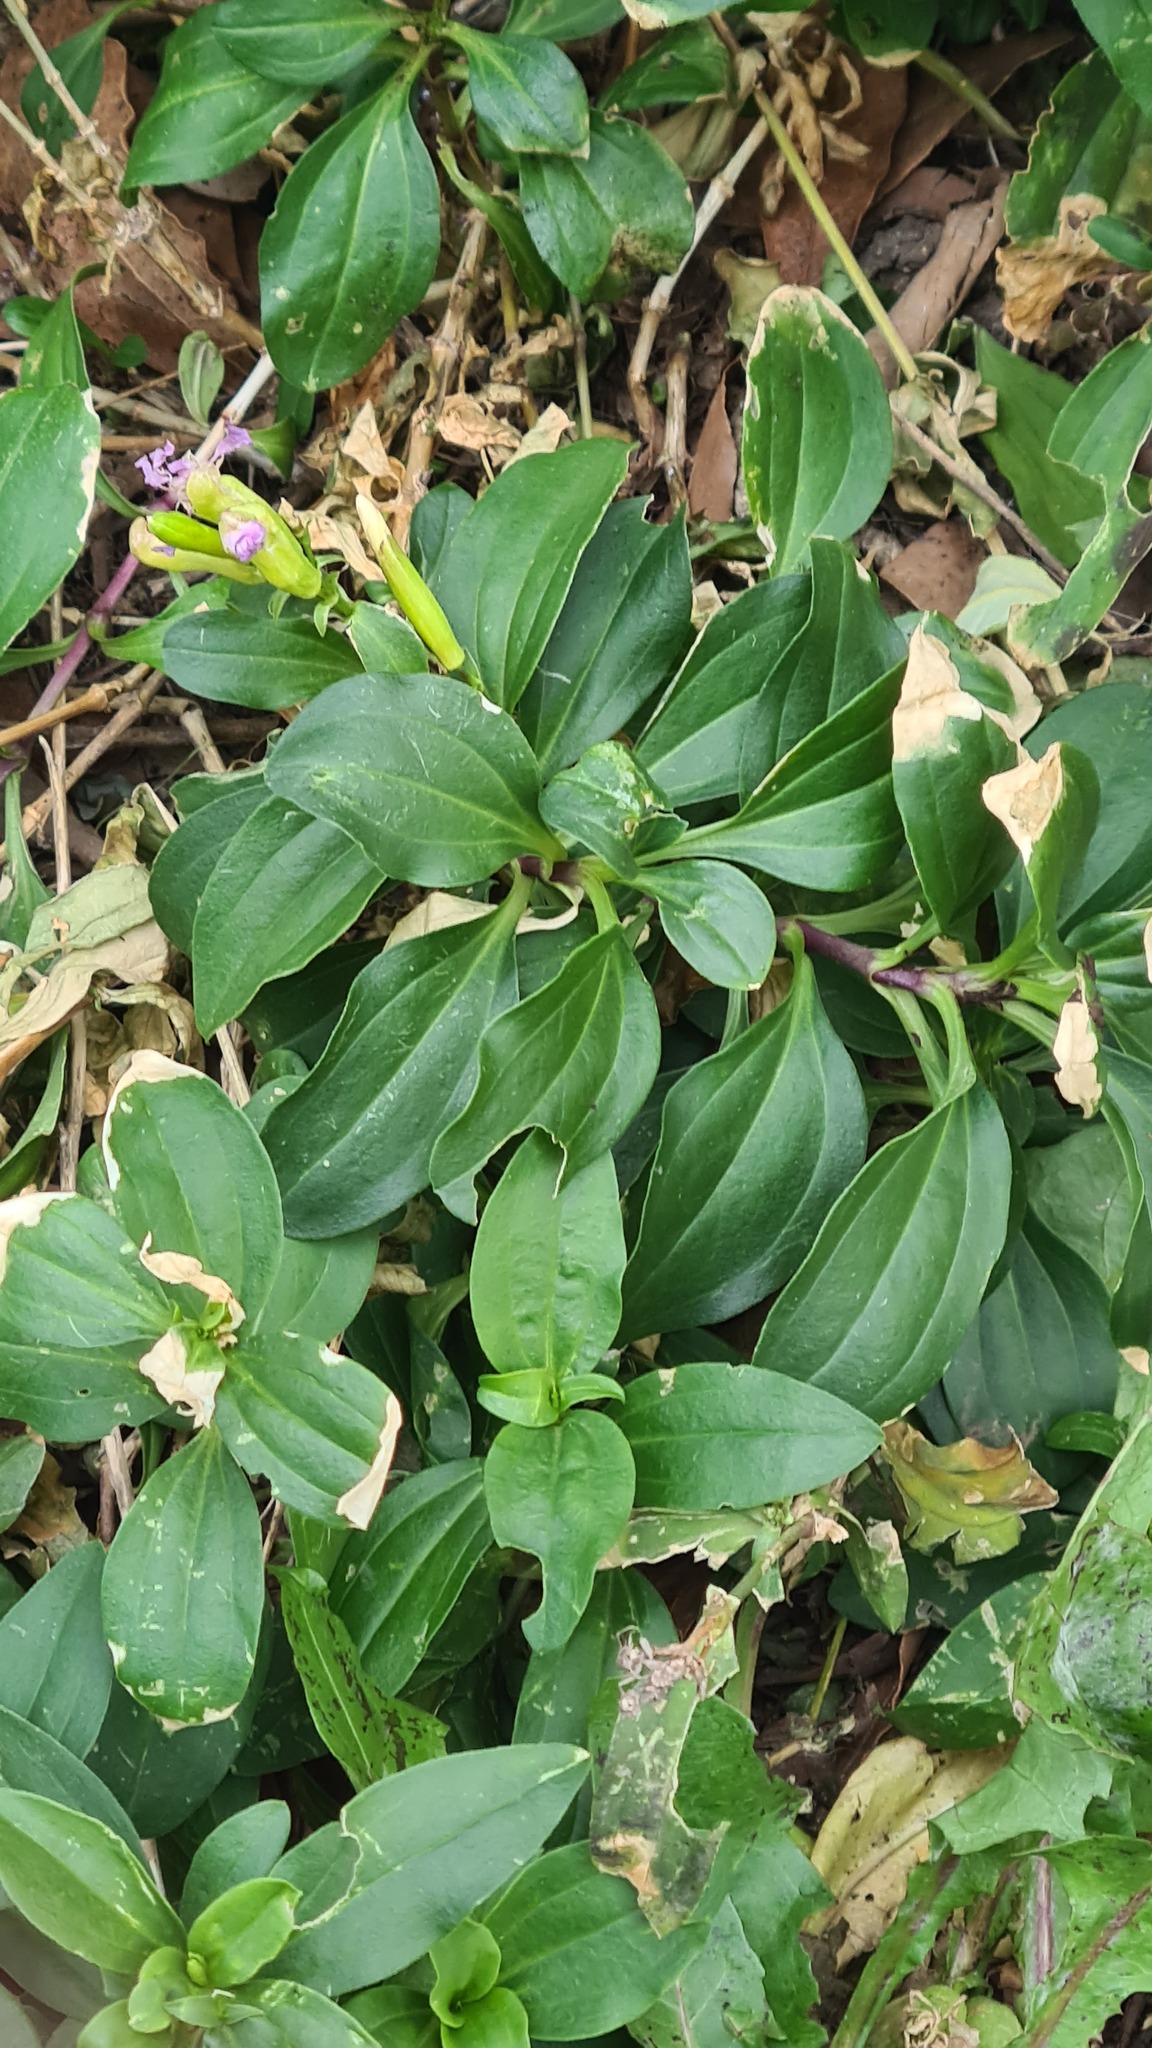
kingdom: Plantae
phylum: Tracheophyta
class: Magnoliopsida
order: Caryophyllales
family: Caryophyllaceae
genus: Saponaria
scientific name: Saponaria officinalis
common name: Soapwort
